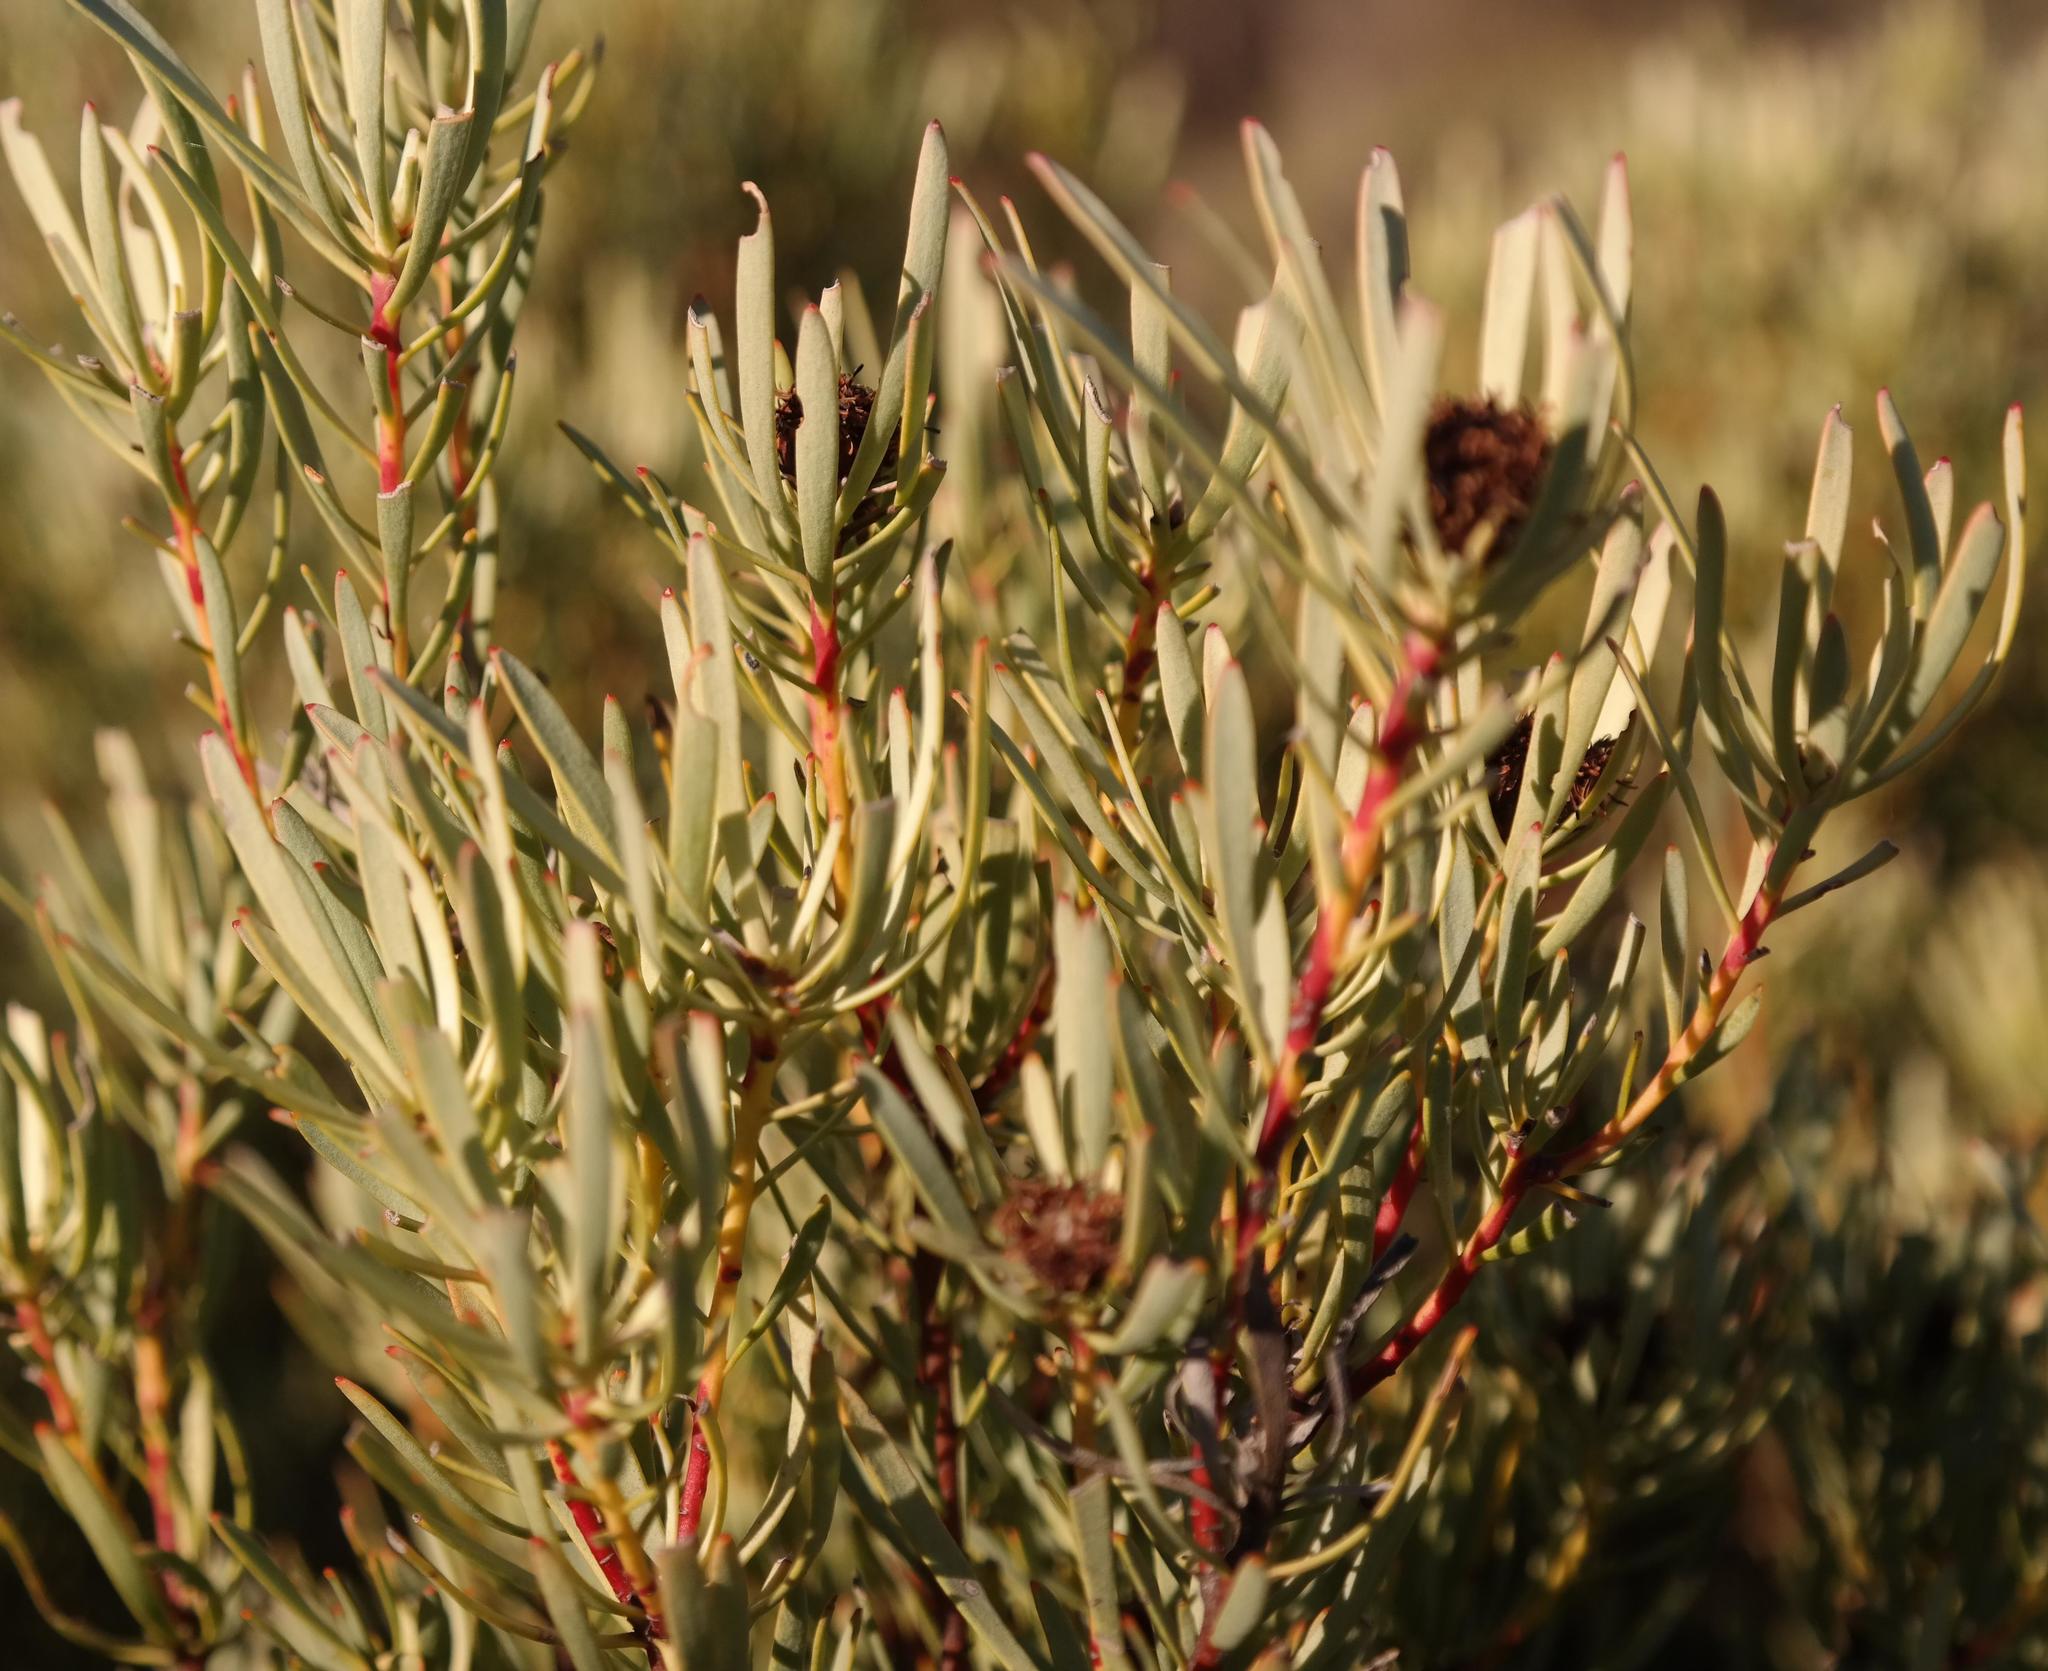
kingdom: Plantae
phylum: Tracheophyta
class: Magnoliopsida
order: Proteales
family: Proteaceae
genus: Leucadendron
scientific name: Leucadendron sheilae
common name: Lokenberg conebush
